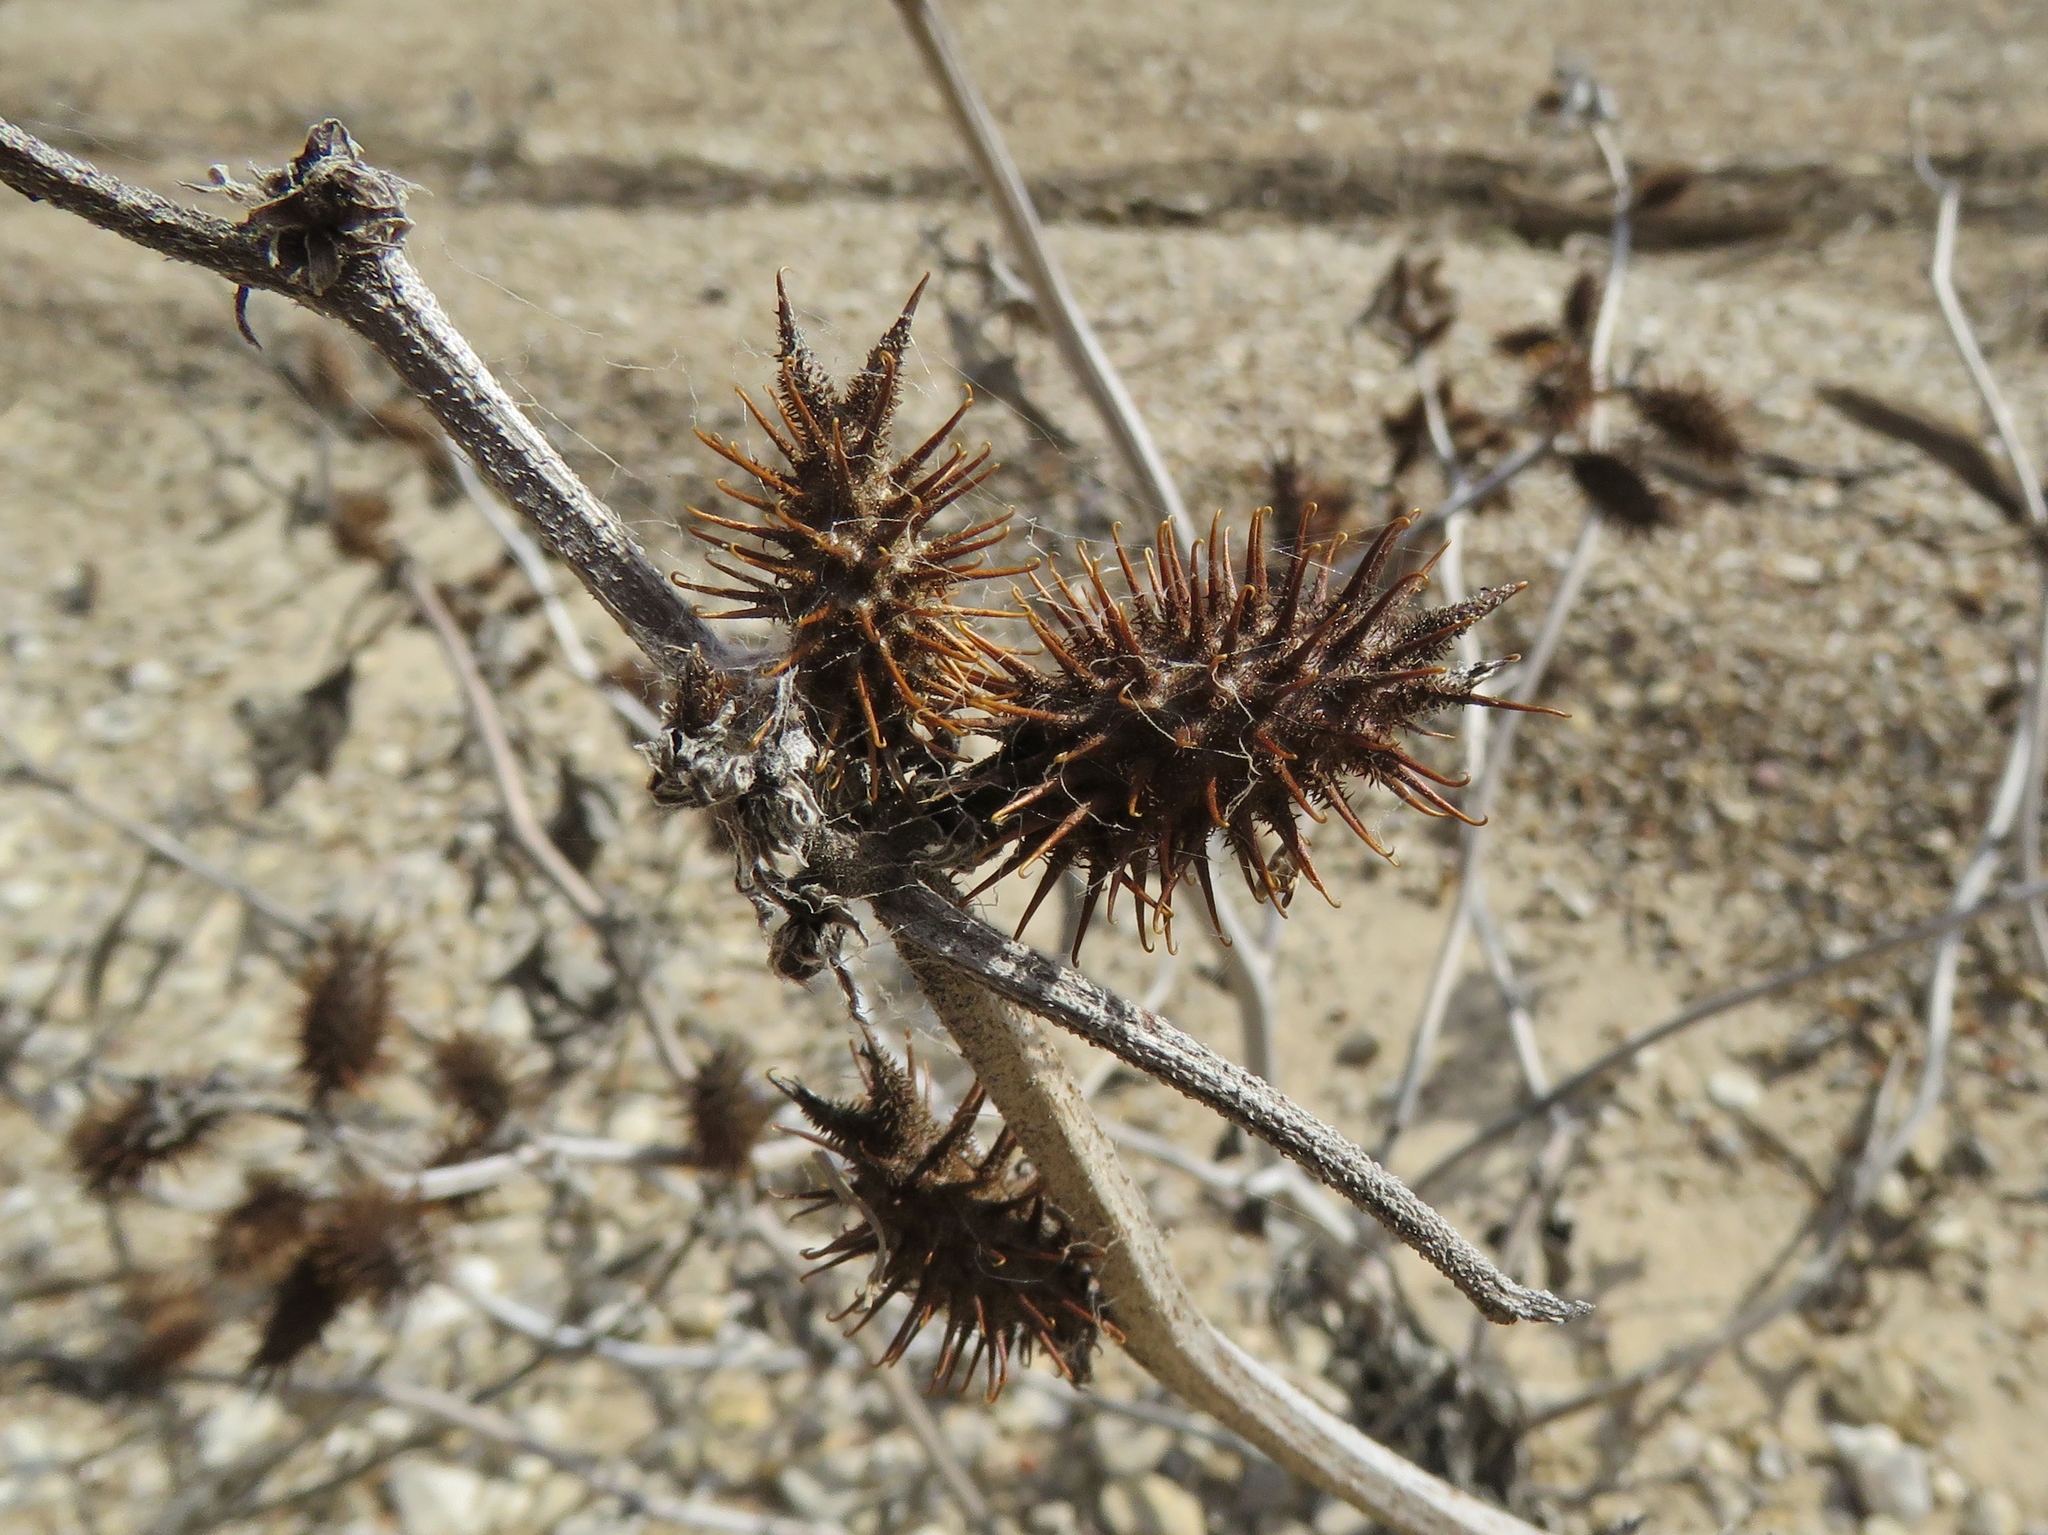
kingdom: Plantae
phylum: Tracheophyta
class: Magnoliopsida
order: Asterales
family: Asteraceae
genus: Xanthium
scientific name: Xanthium strumarium
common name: Rough cocklebur
